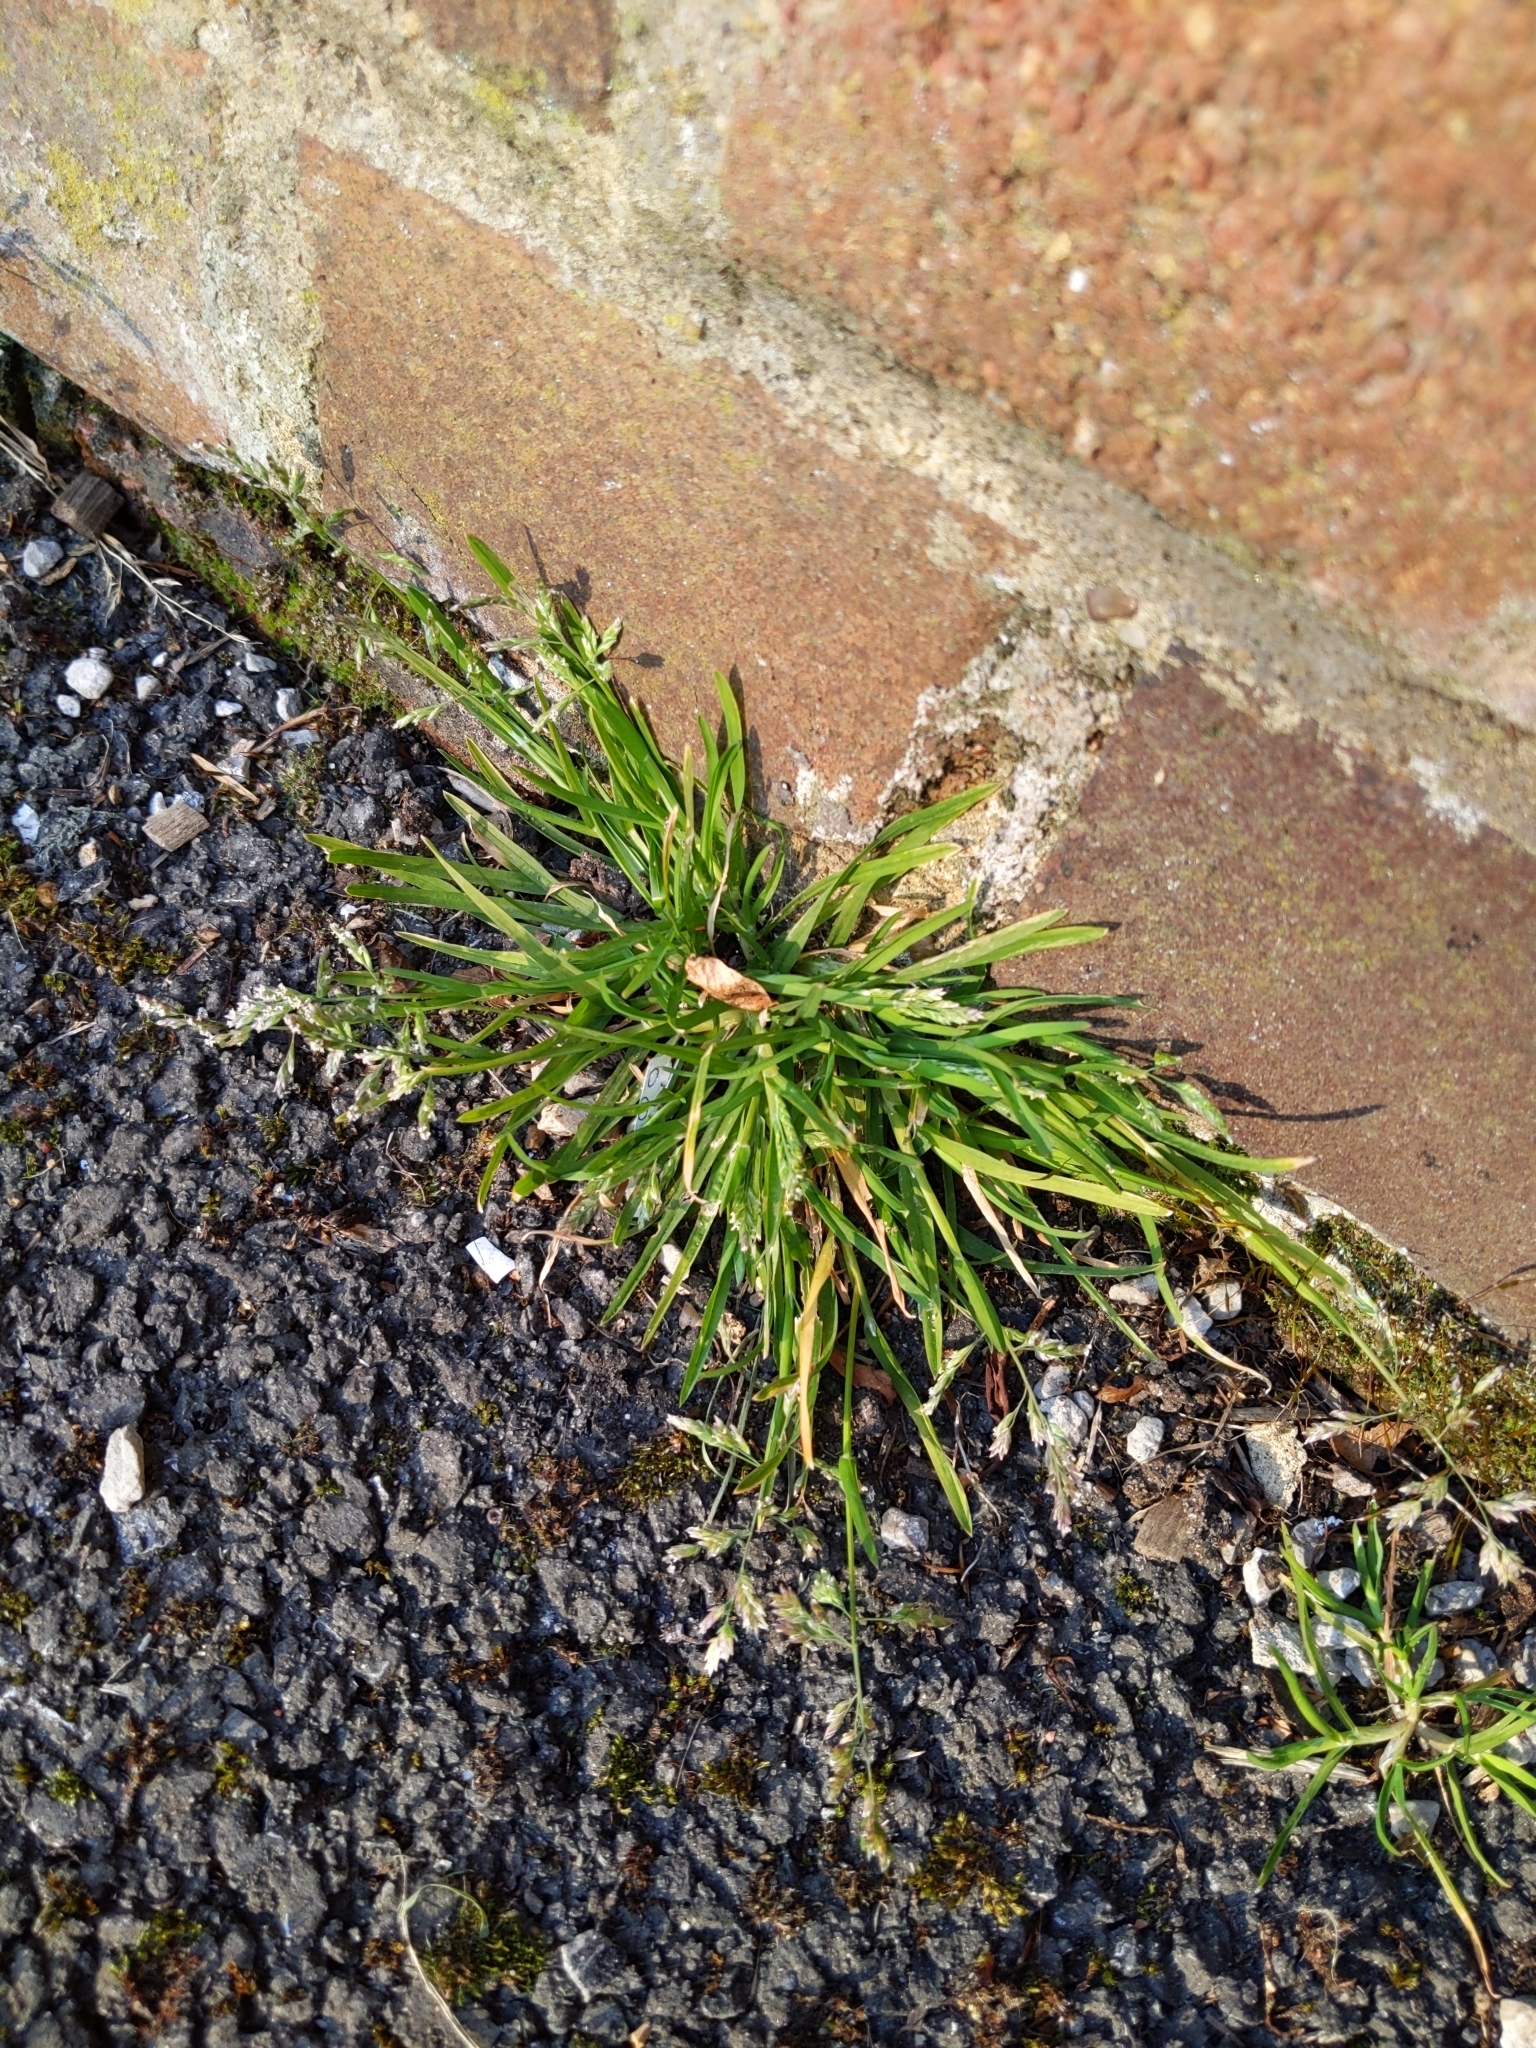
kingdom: Plantae
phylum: Tracheophyta
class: Liliopsida
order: Poales
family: Poaceae
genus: Poa
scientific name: Poa annua
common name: Annual bluegrass
